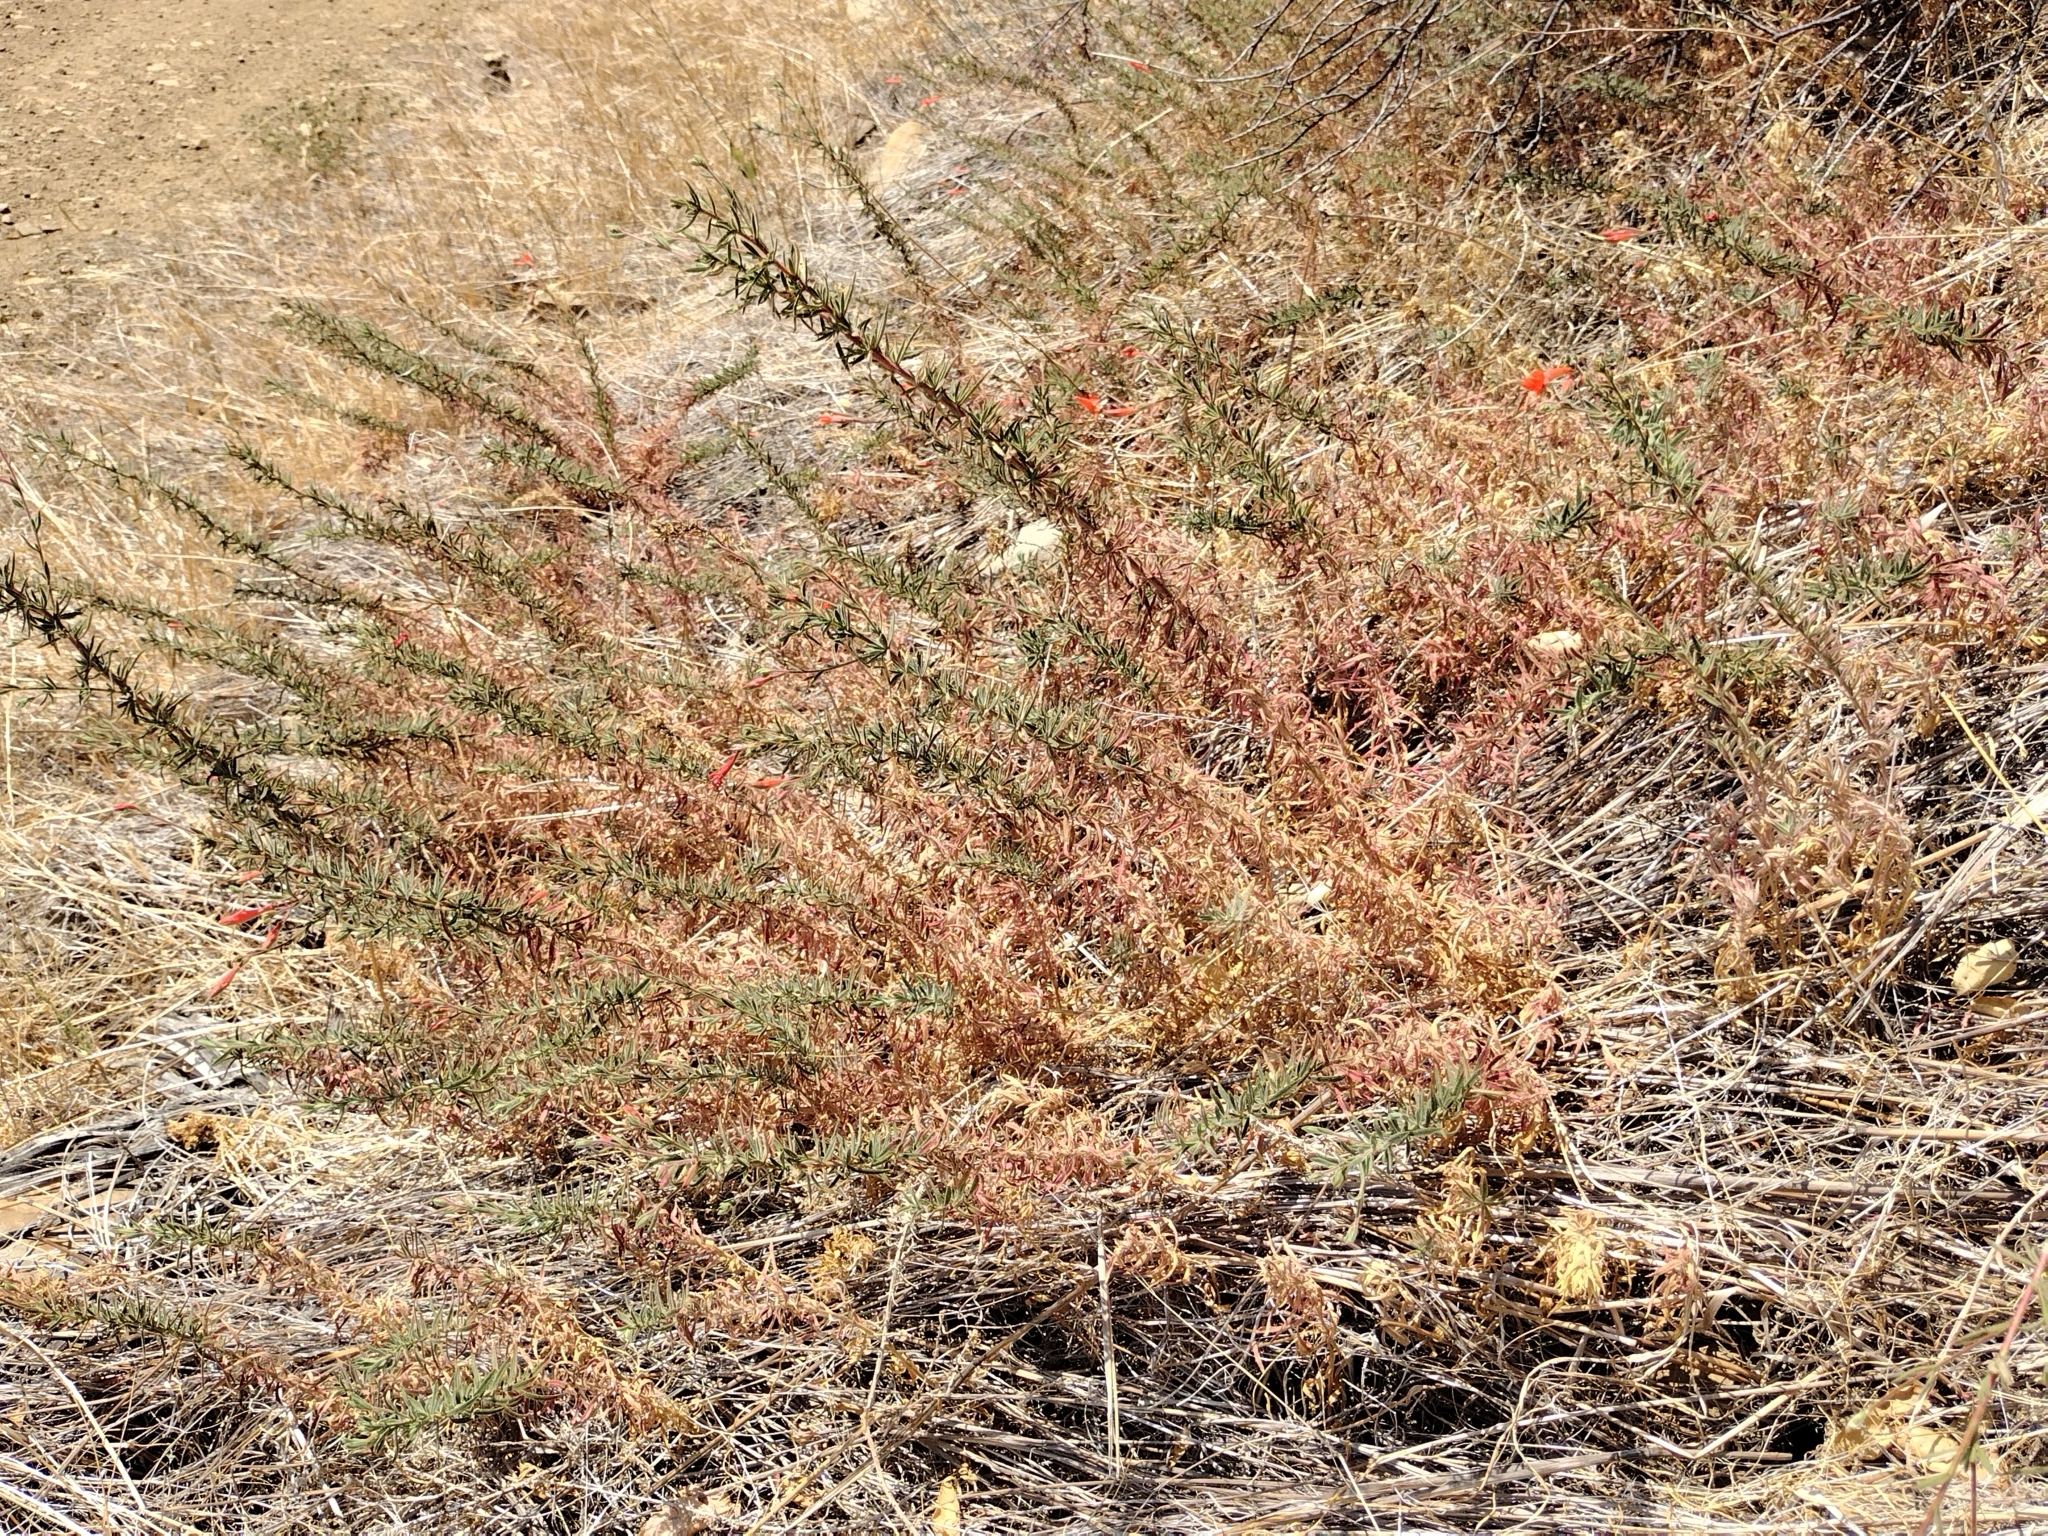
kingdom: Plantae
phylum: Tracheophyta
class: Magnoliopsida
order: Myrtales
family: Onagraceae
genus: Epilobium
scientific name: Epilobium canum
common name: California-fuchsia
